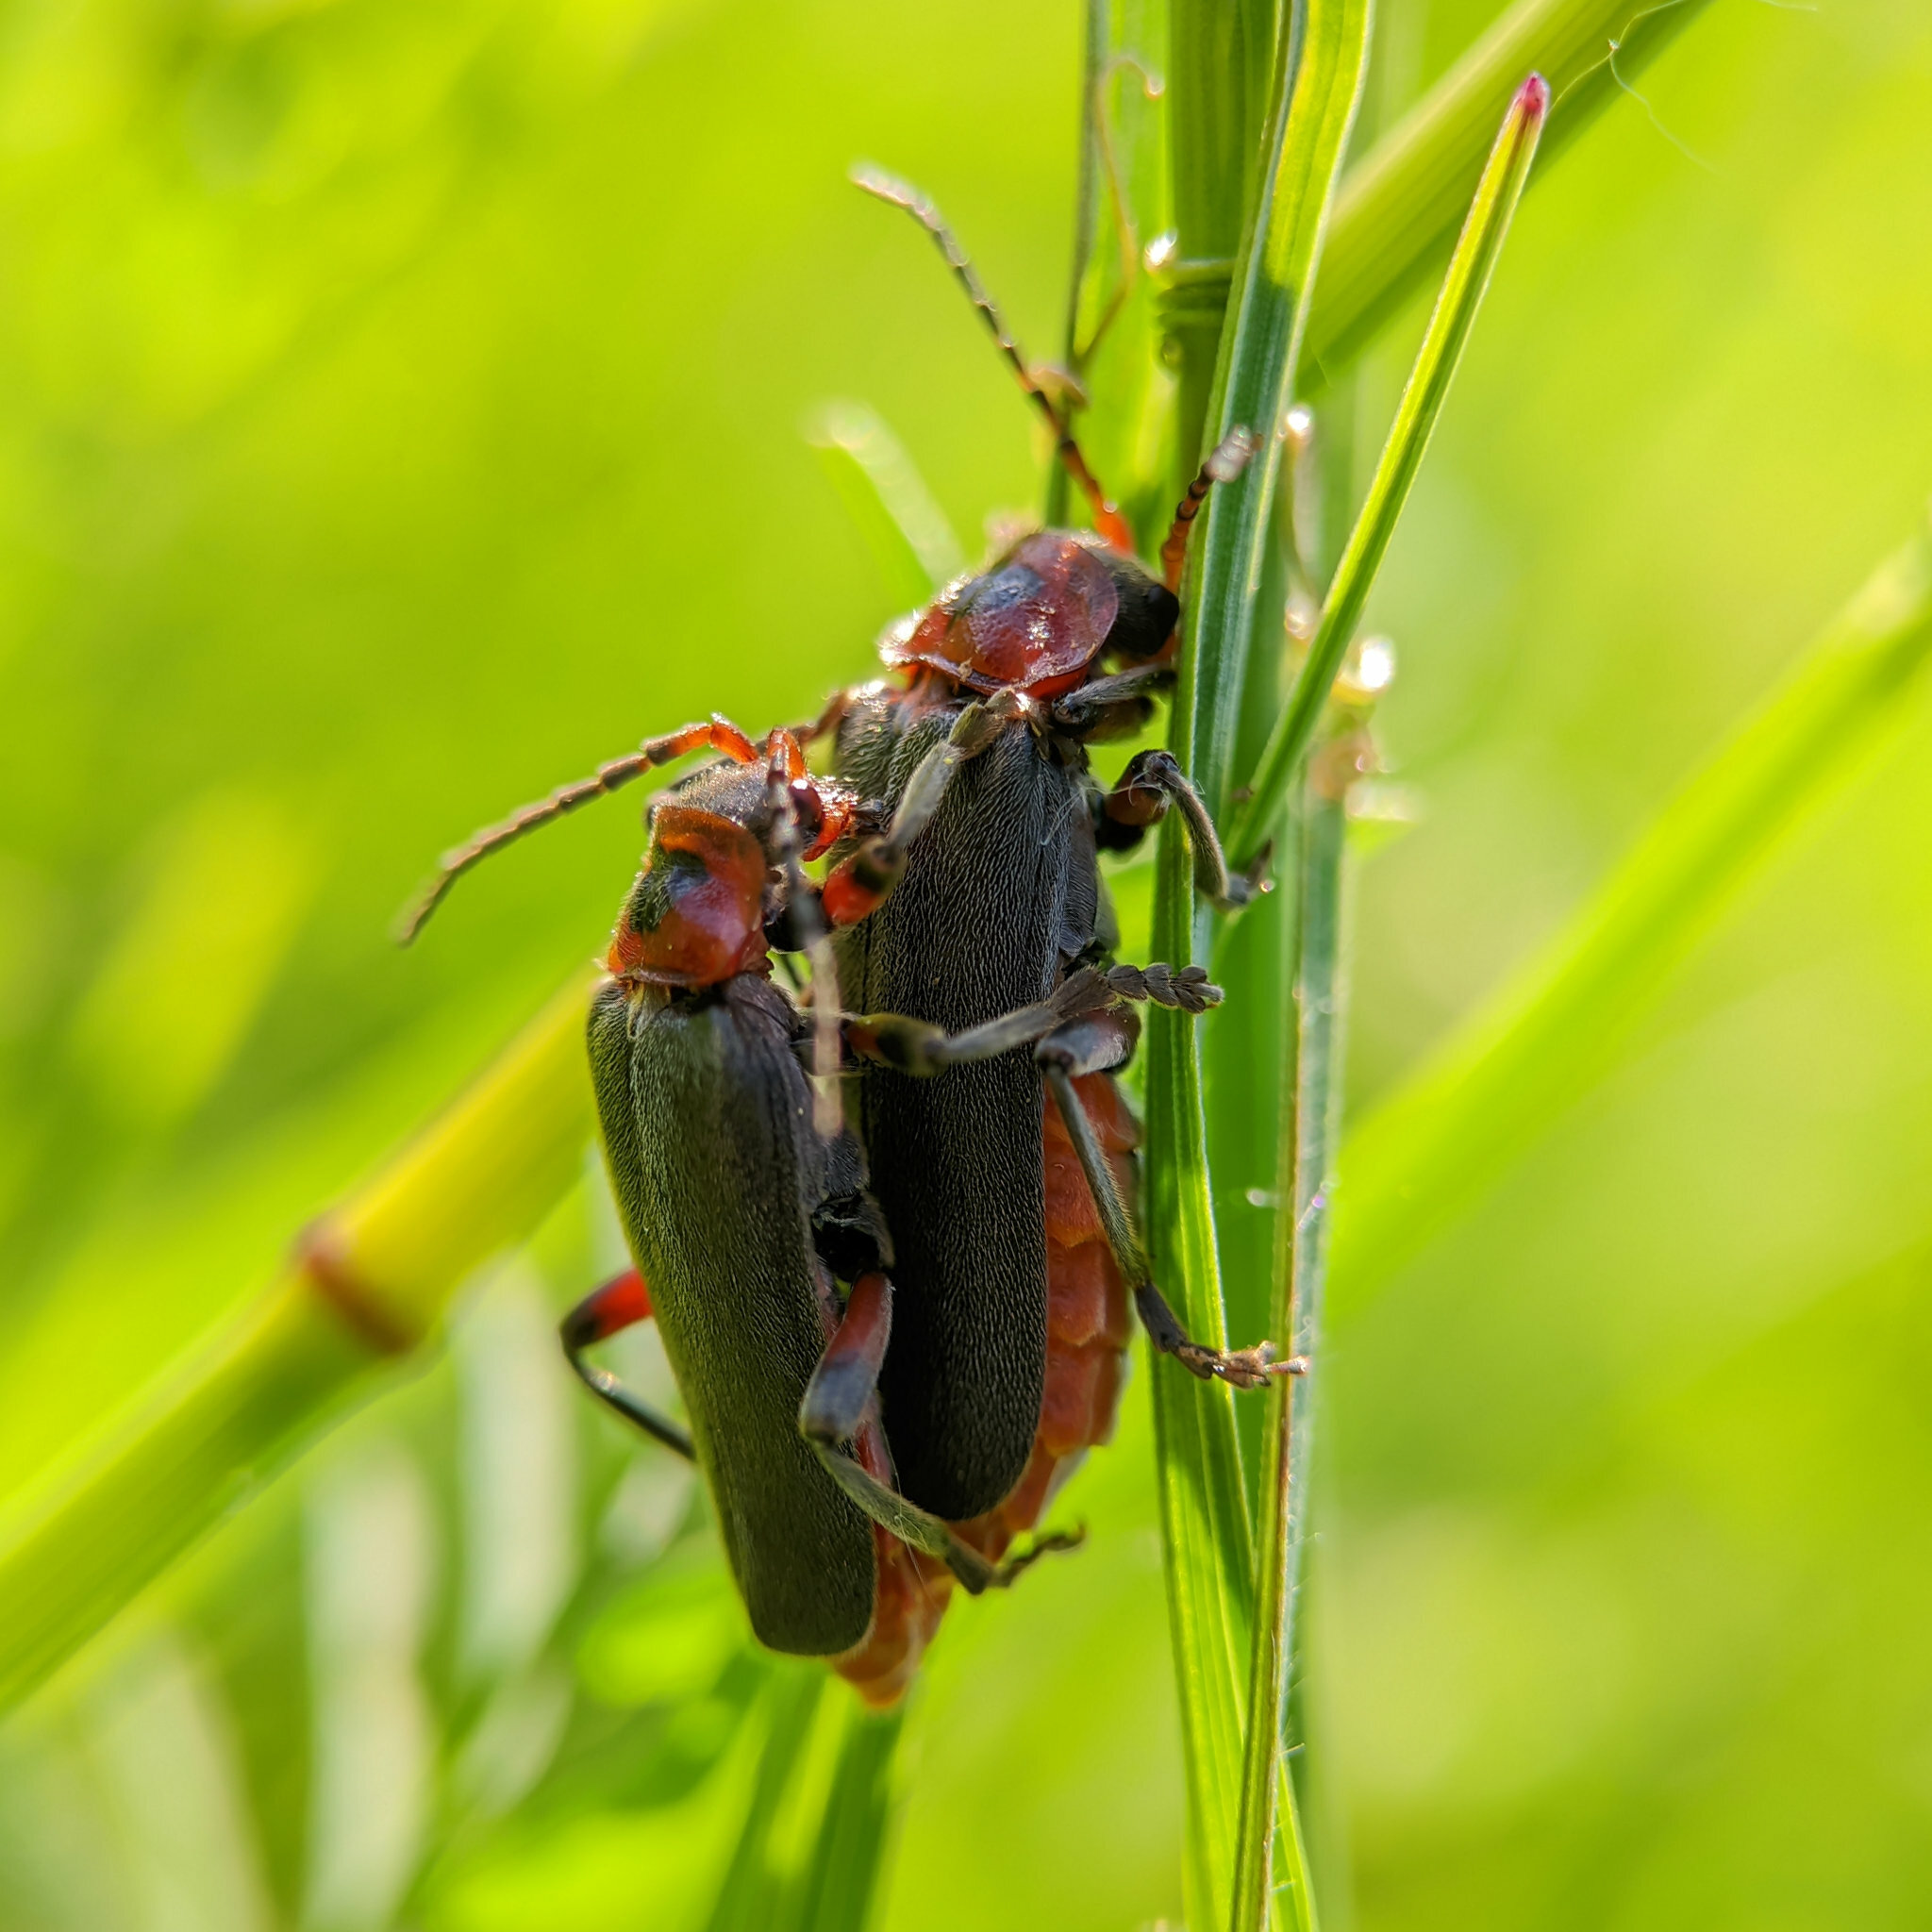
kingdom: Animalia
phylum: Arthropoda
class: Insecta
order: Coleoptera
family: Cantharidae
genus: Cantharis
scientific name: Cantharis rustica
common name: Soldier beetle
